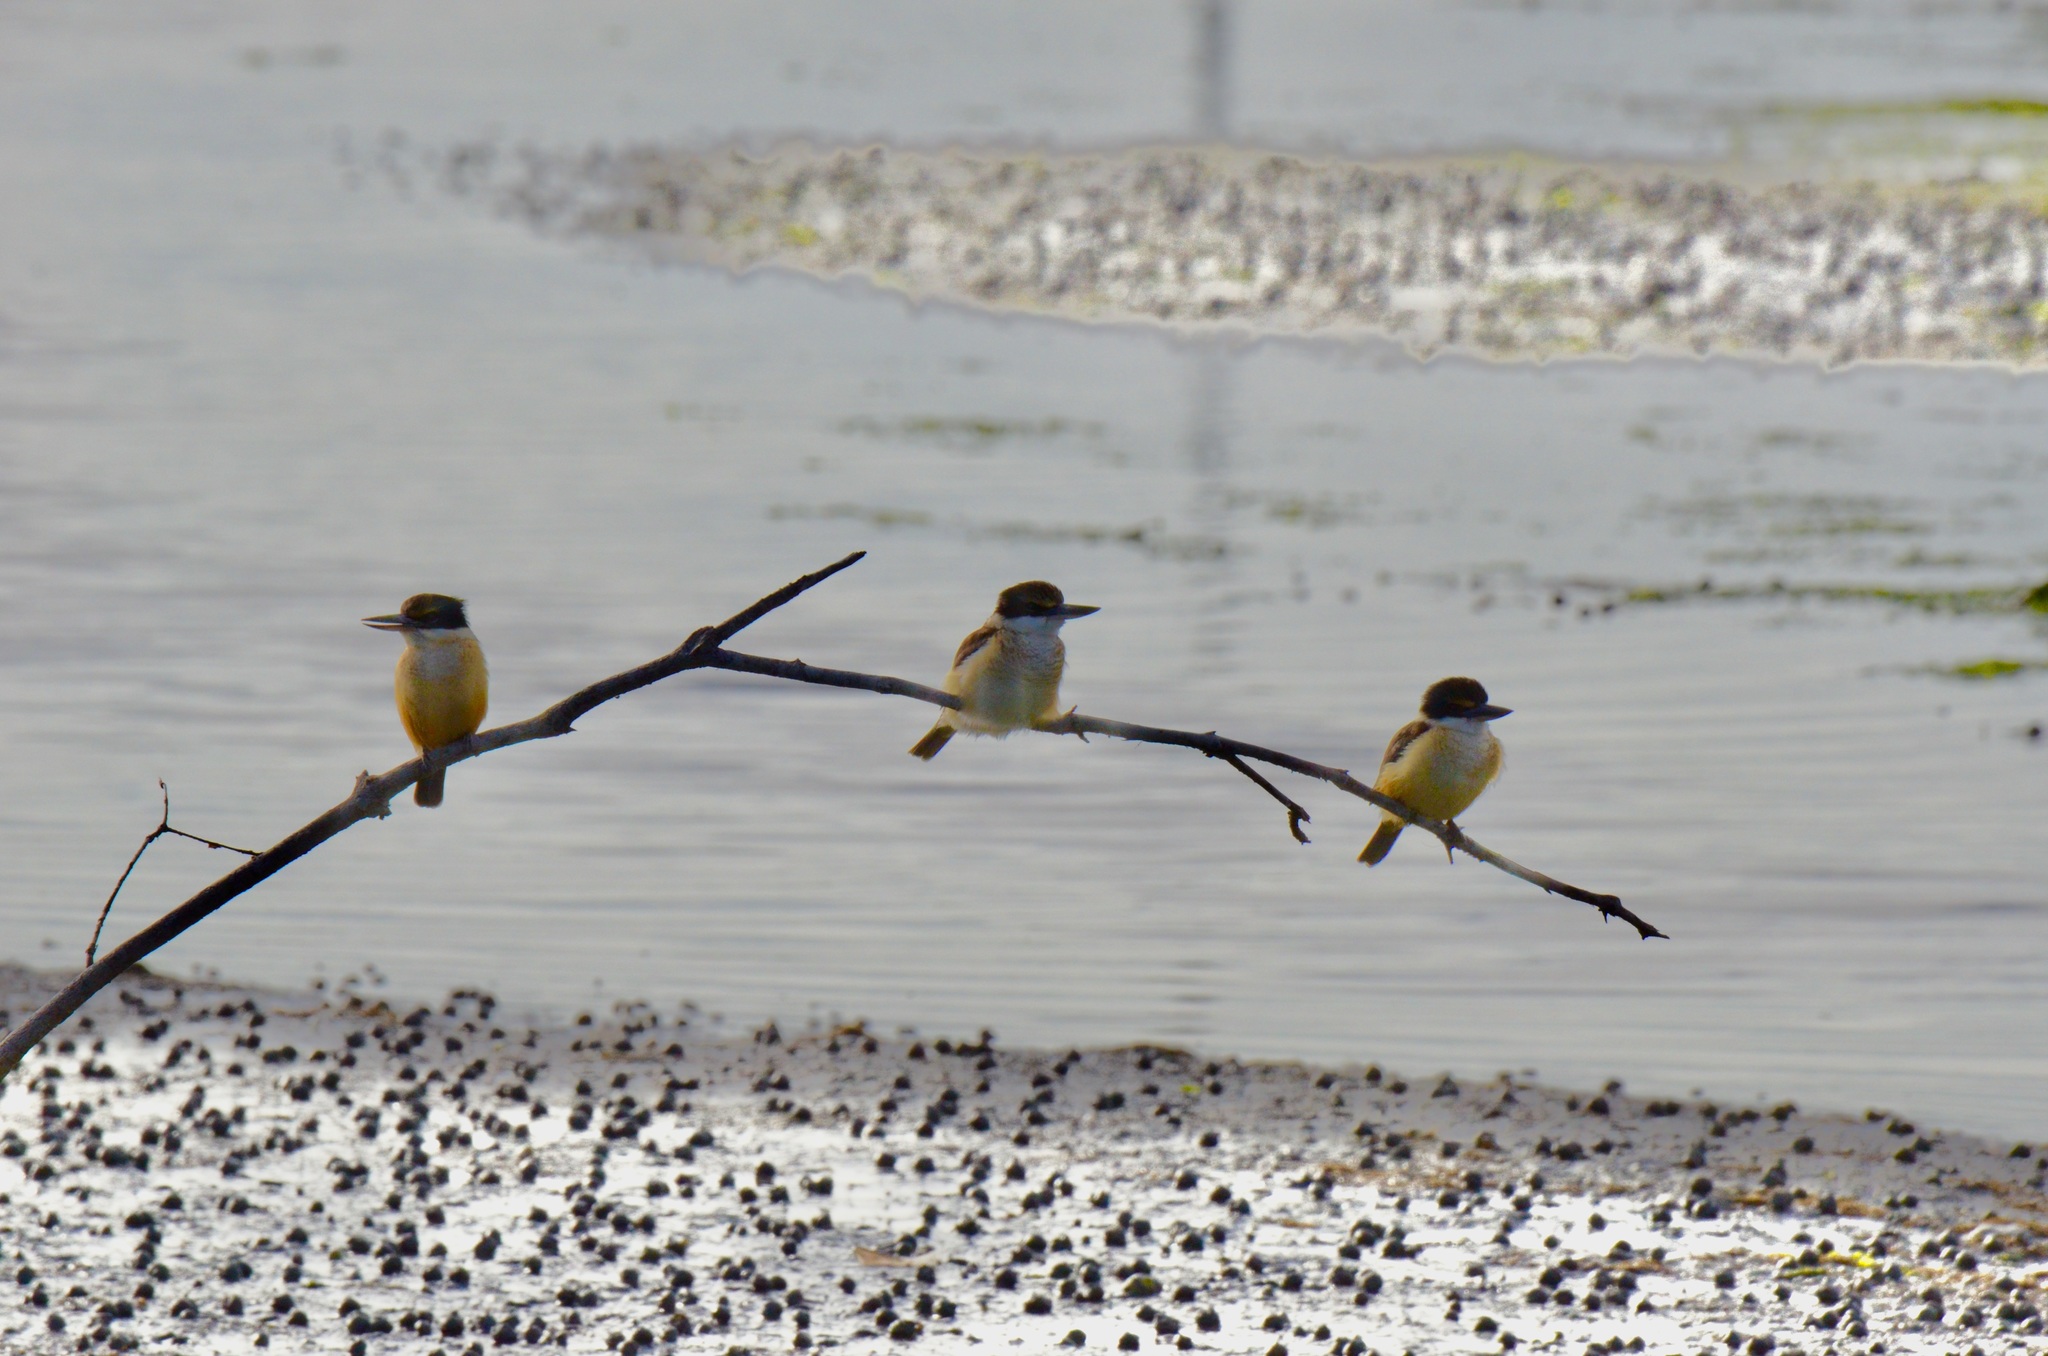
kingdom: Animalia
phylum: Chordata
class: Aves
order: Coraciiformes
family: Alcedinidae
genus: Todiramphus
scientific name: Todiramphus sanctus
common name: Sacred kingfisher
